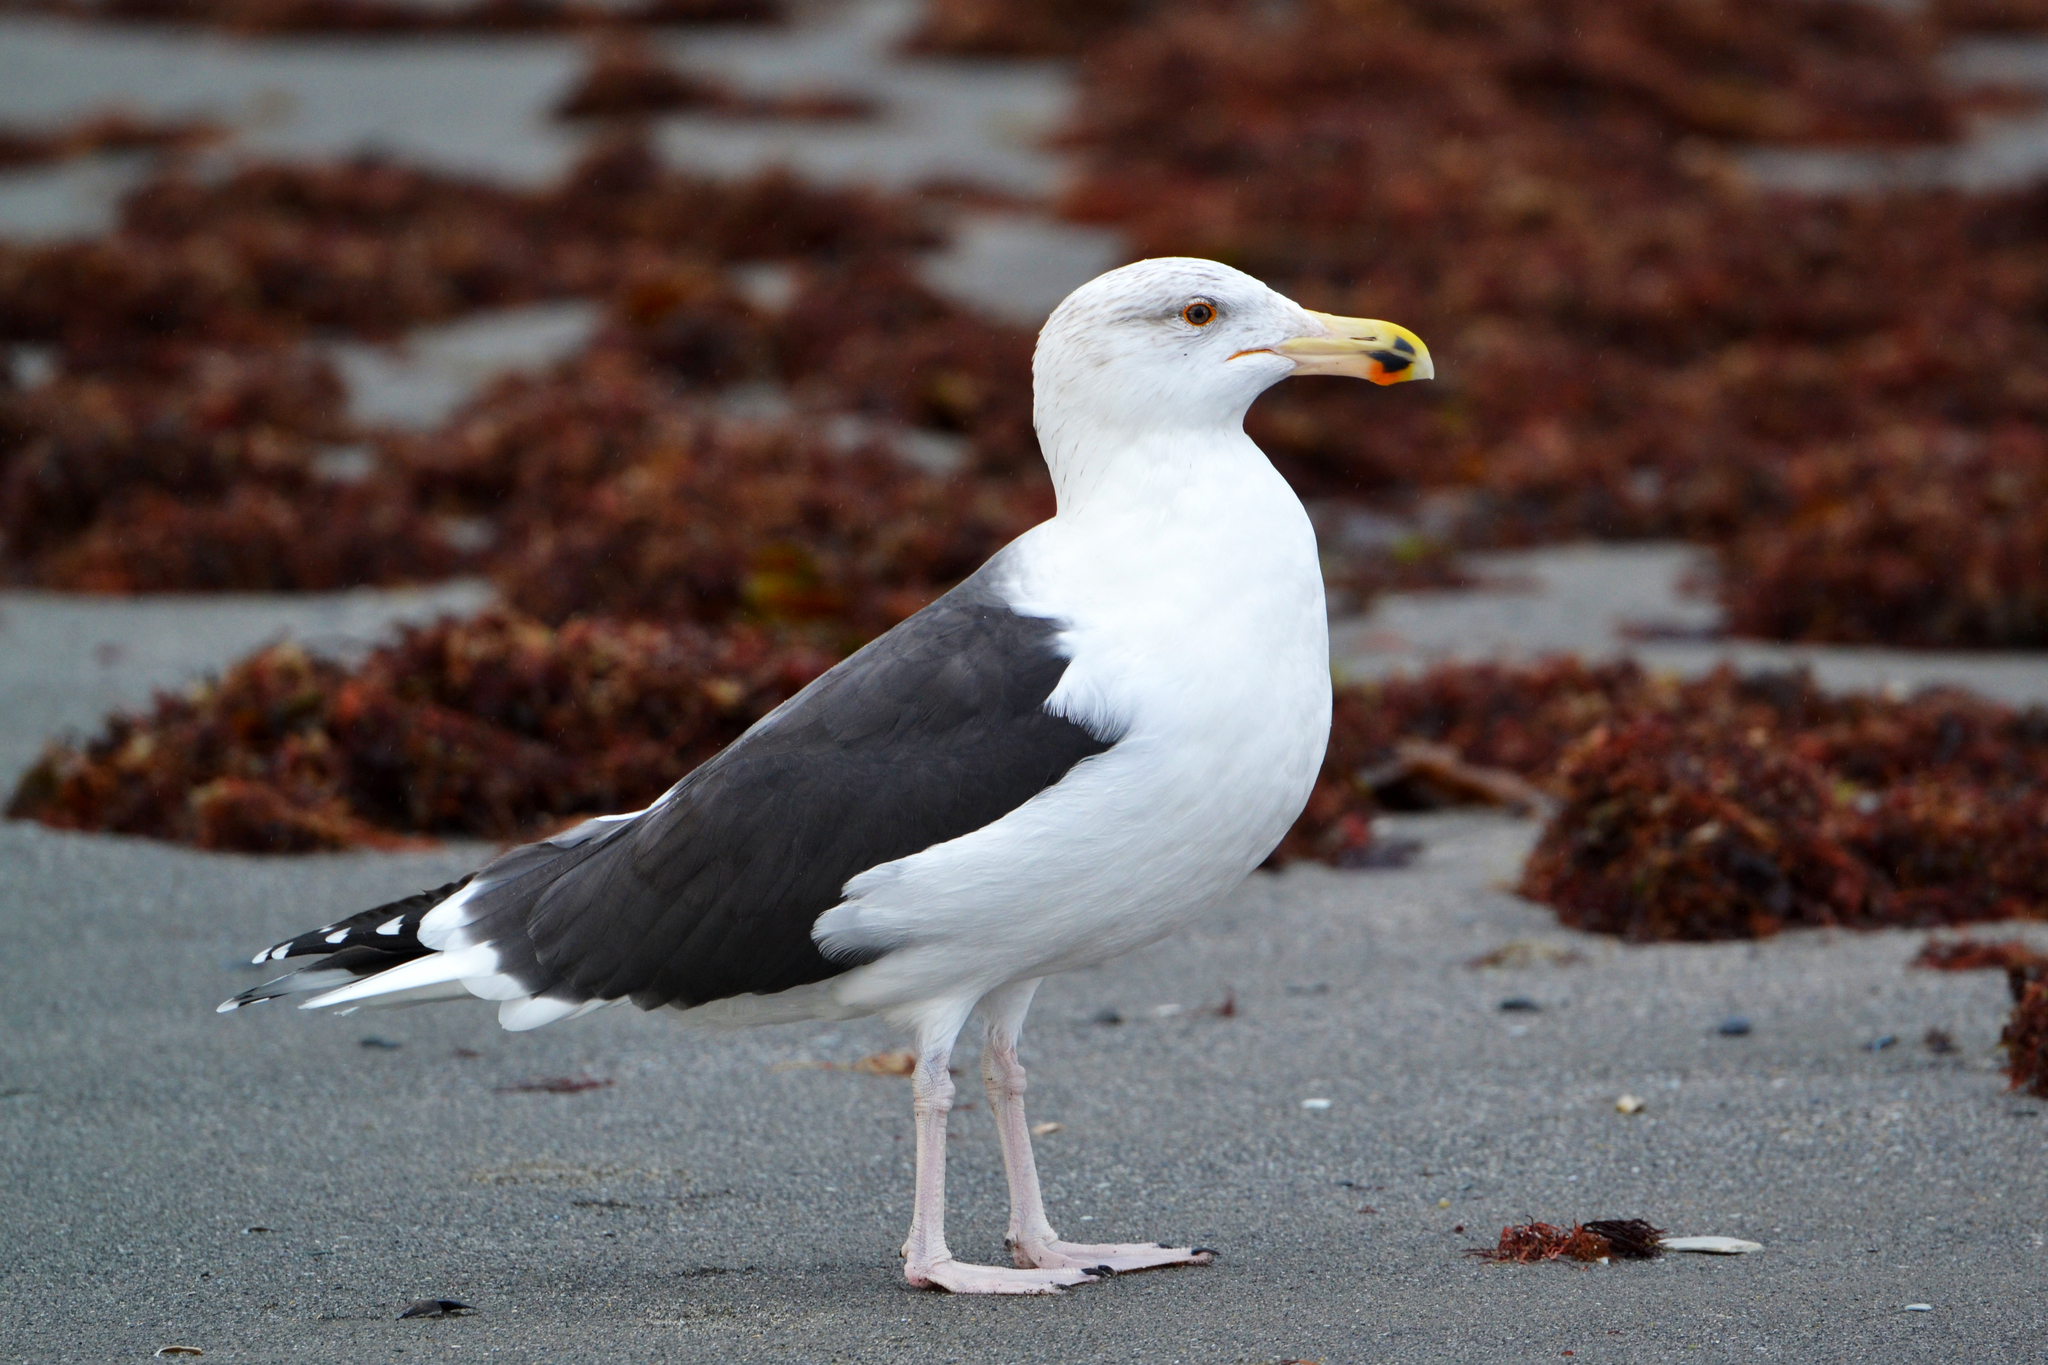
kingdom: Animalia
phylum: Chordata
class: Aves
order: Charadriiformes
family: Laridae
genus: Larus
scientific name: Larus marinus
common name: Great black-backed gull
